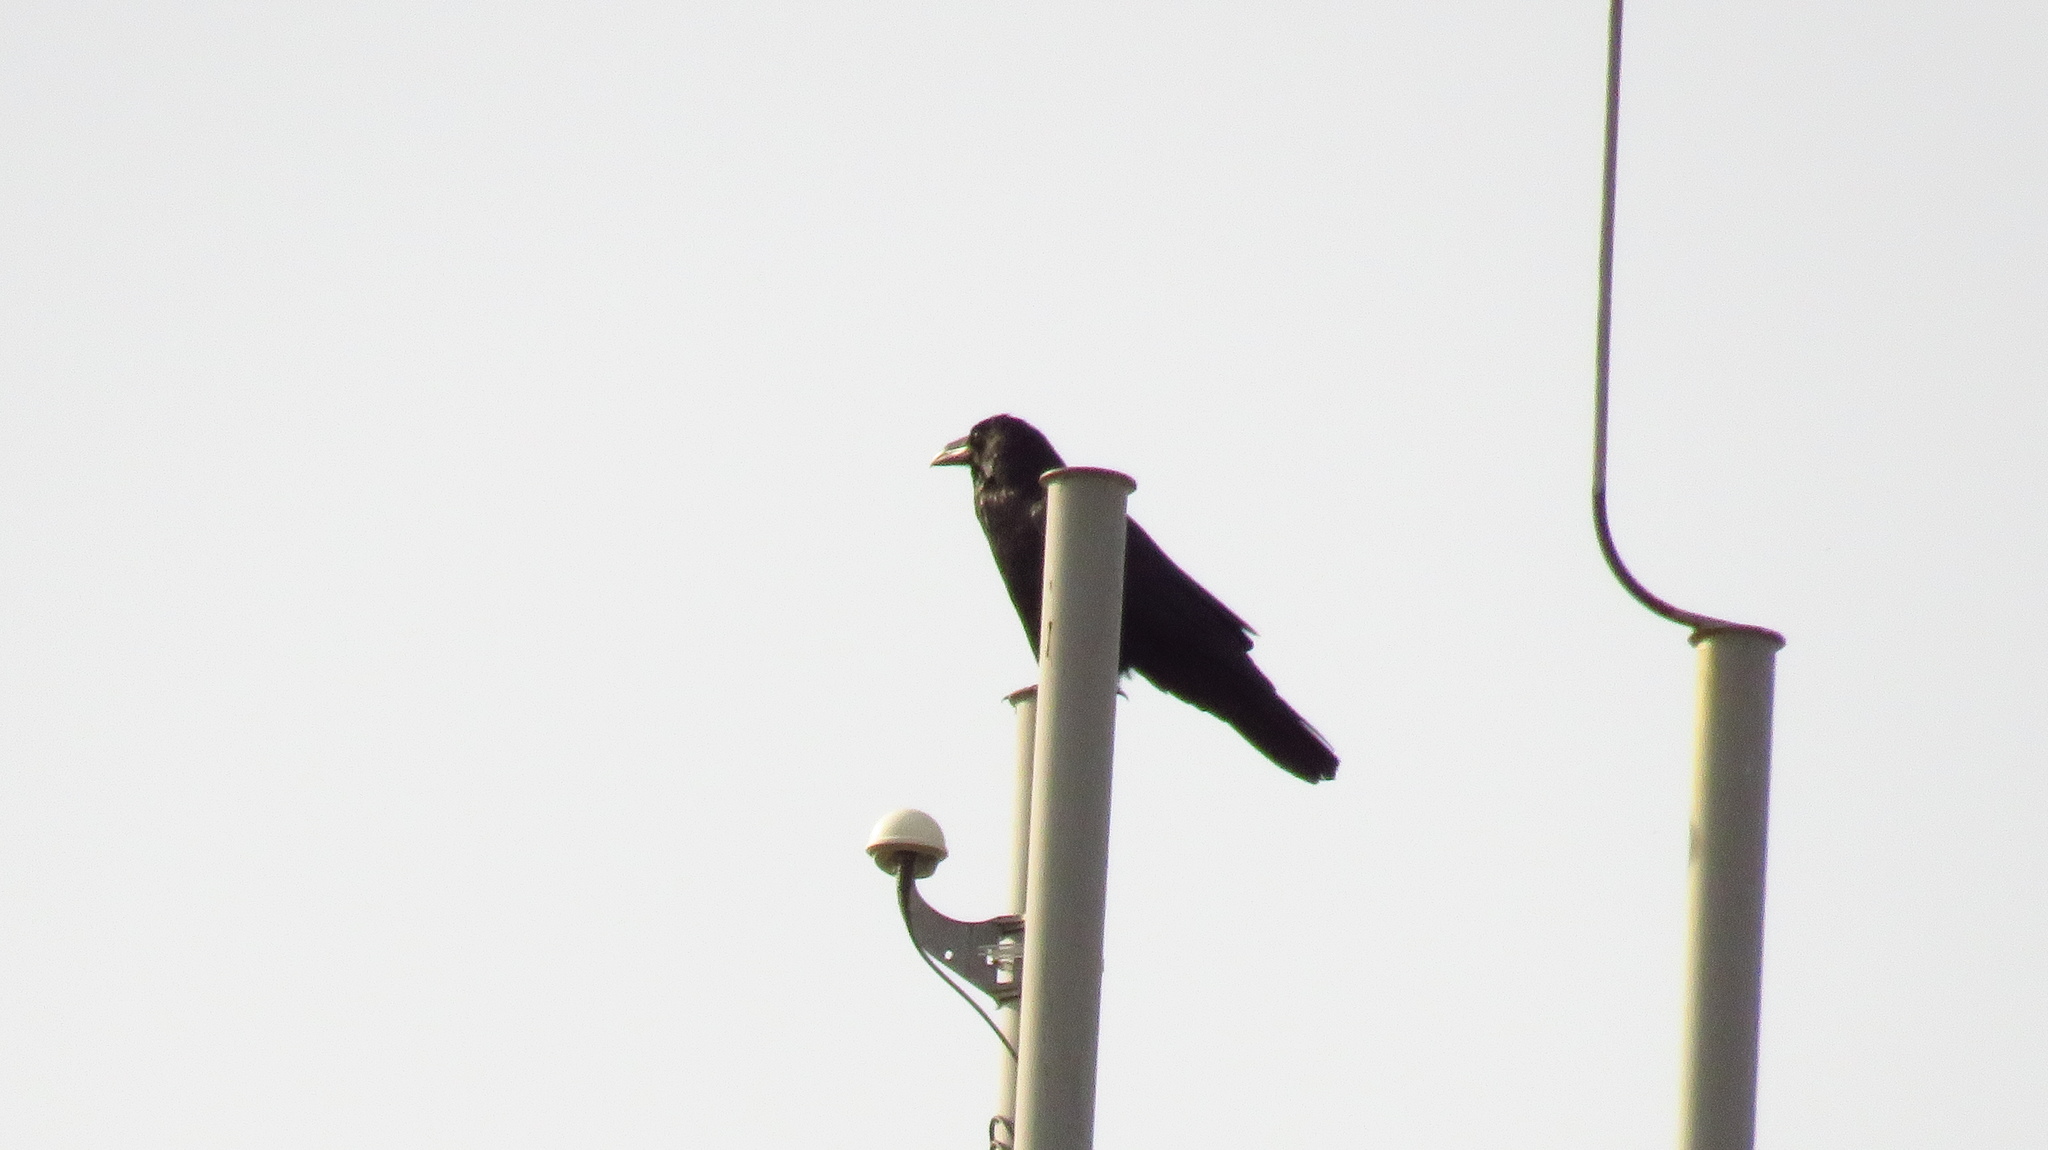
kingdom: Animalia
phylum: Chordata
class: Aves
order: Passeriformes
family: Corvidae
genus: Corvus
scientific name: Corvus corax
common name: Common raven
